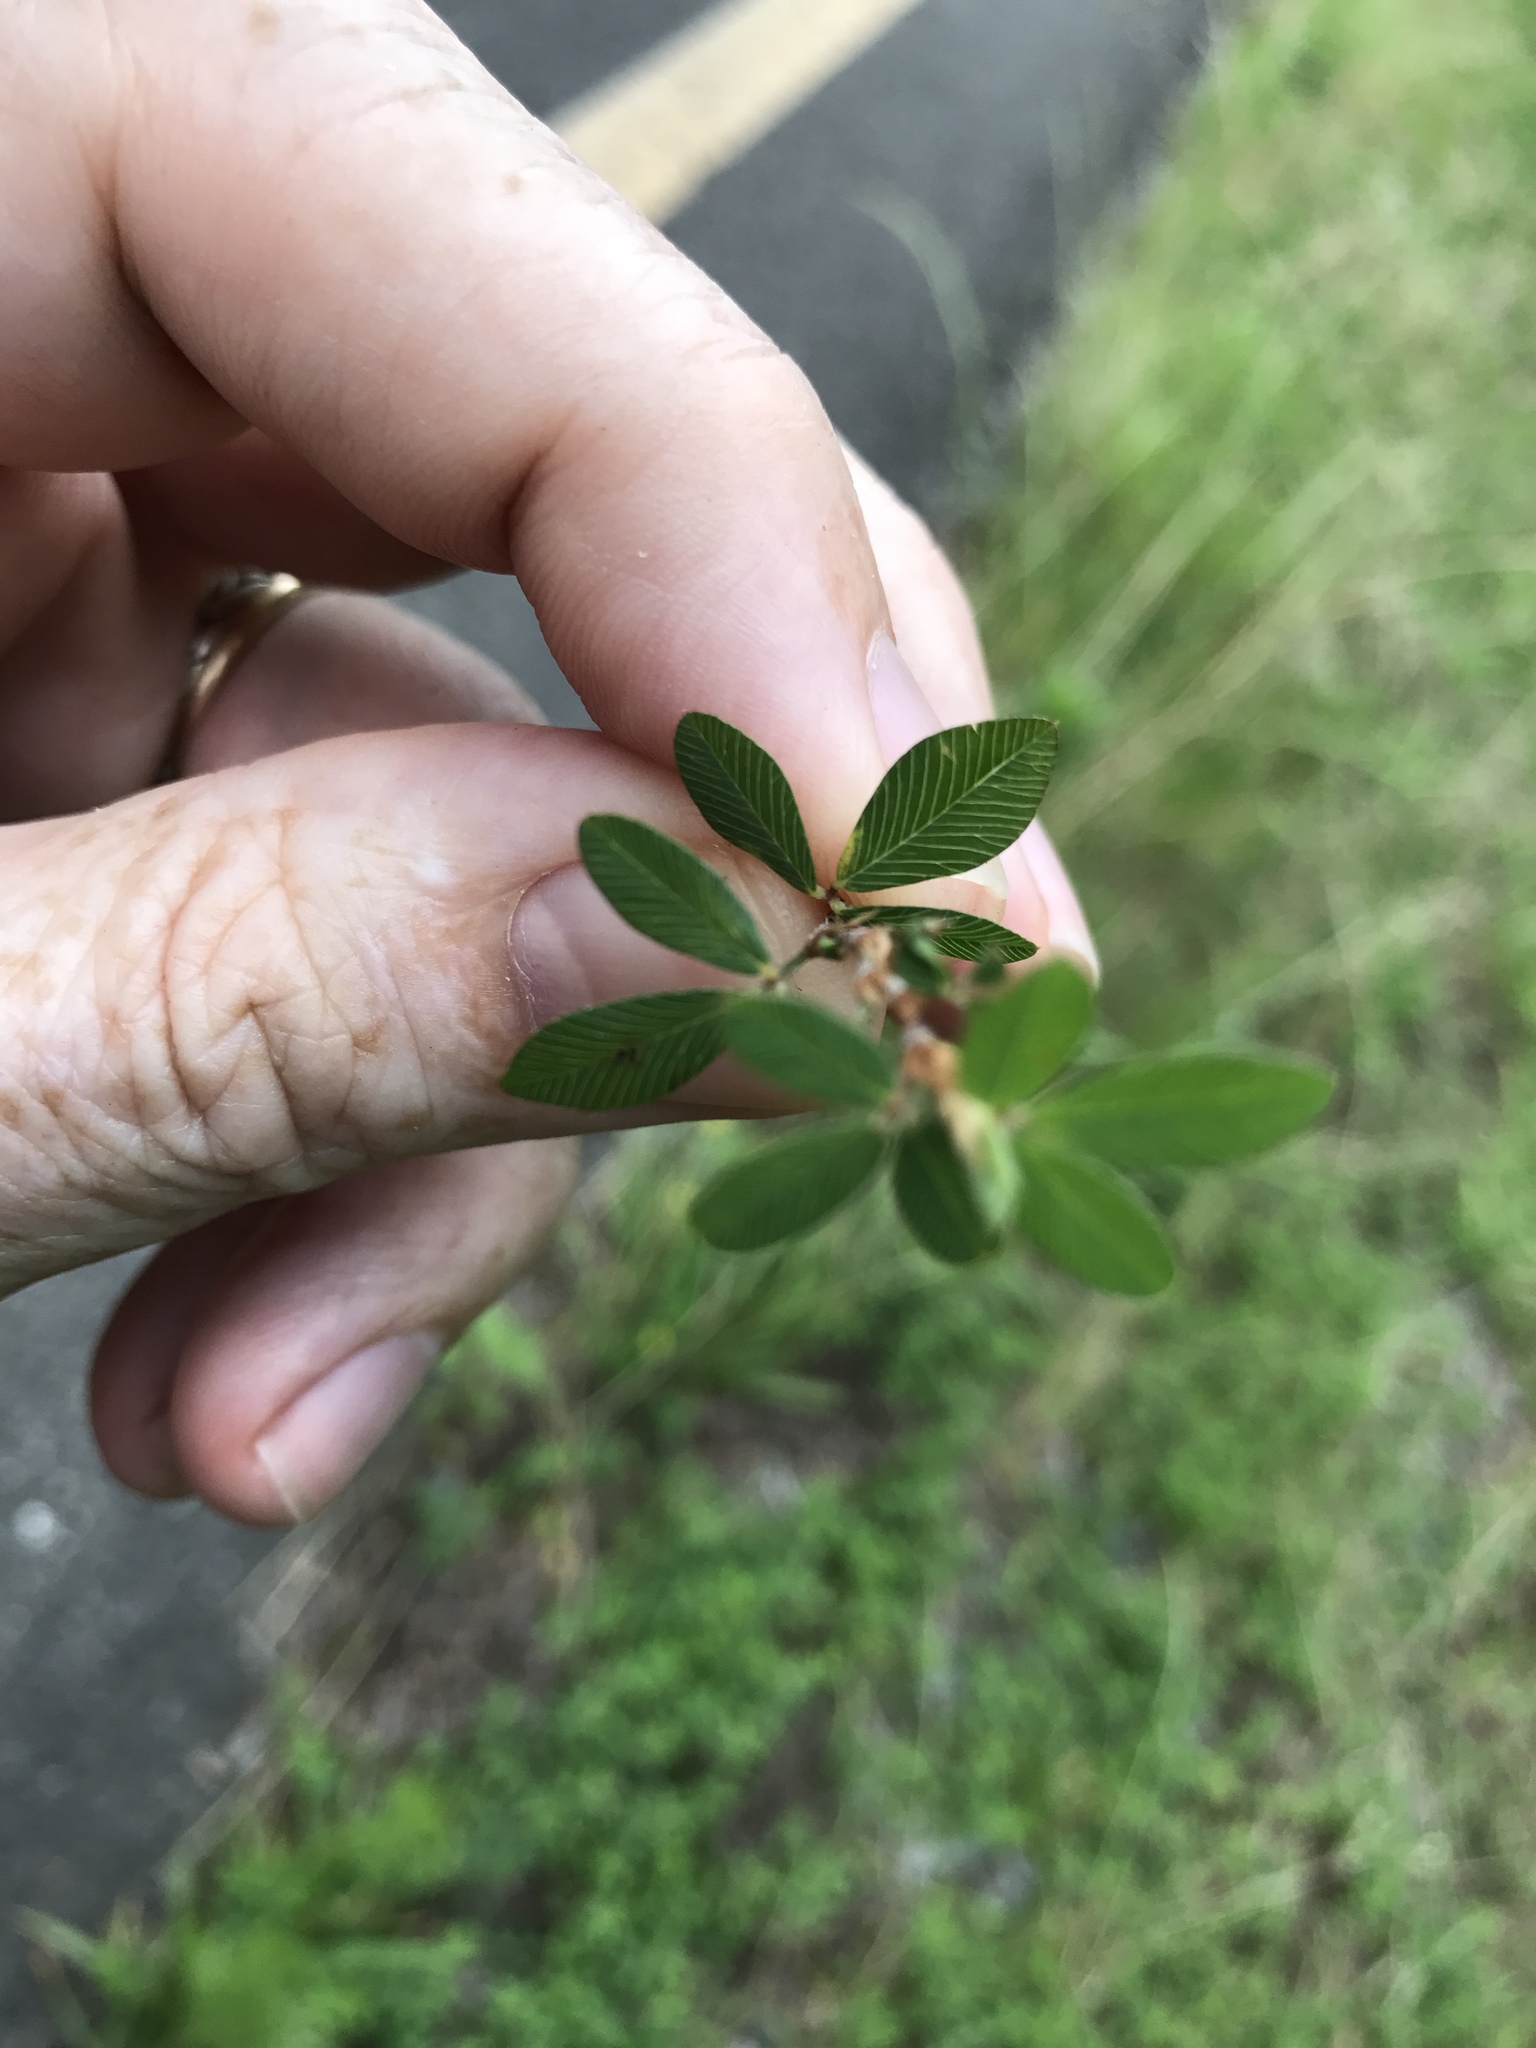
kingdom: Plantae
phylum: Tracheophyta
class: Magnoliopsida
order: Fabales
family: Fabaceae
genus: Kummerowia
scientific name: Kummerowia striata
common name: Japanese clover
